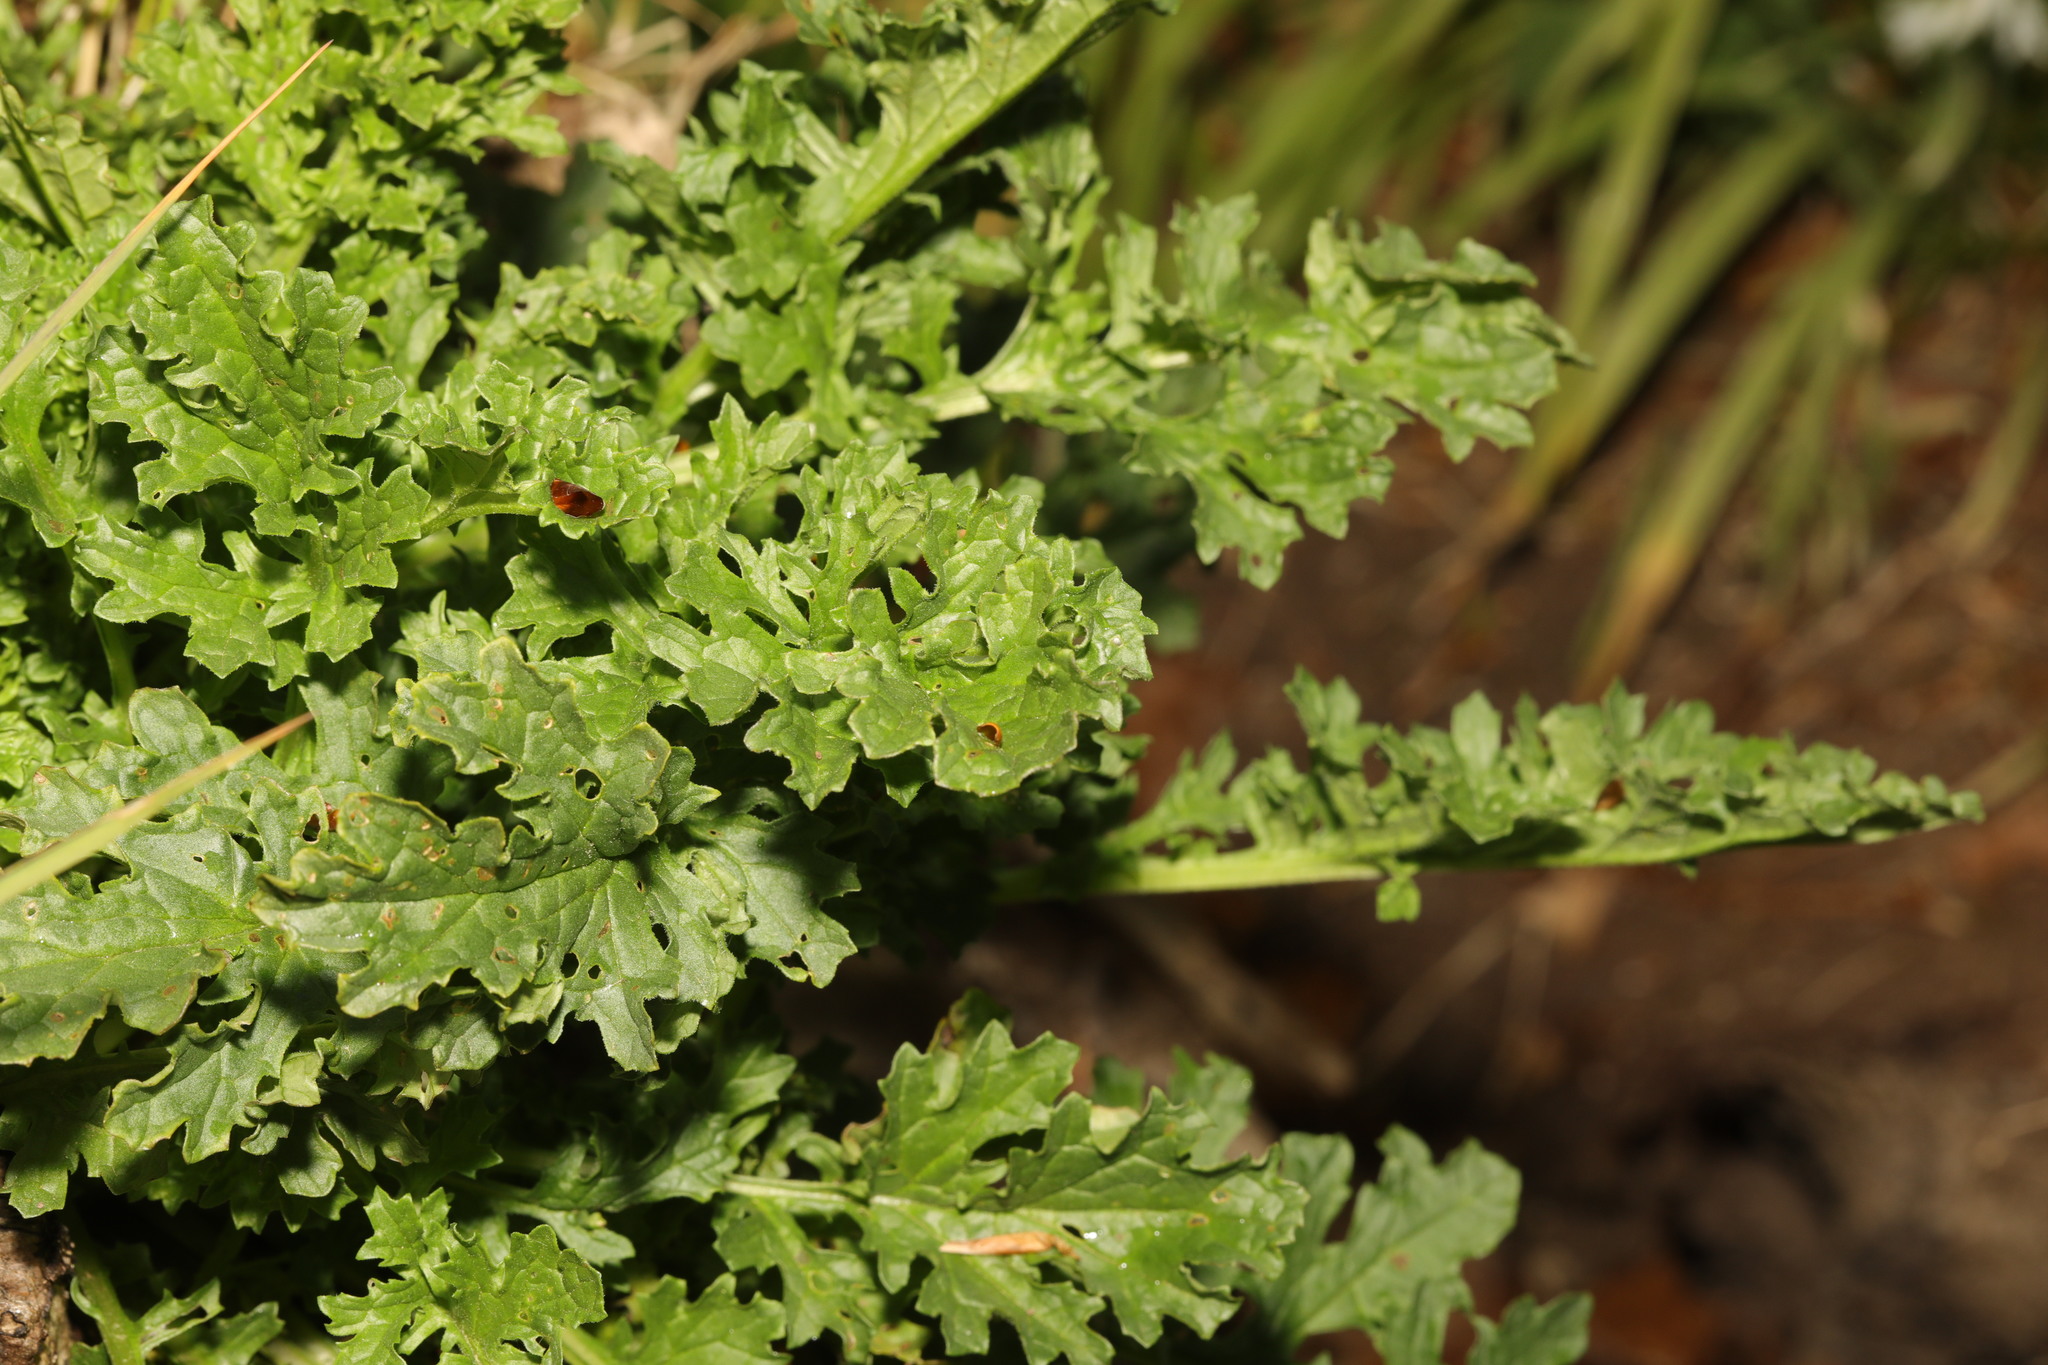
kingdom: Plantae
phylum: Tracheophyta
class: Magnoliopsida
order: Asterales
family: Asteraceae
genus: Jacobaea
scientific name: Jacobaea vulgaris
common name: Stinking willie
